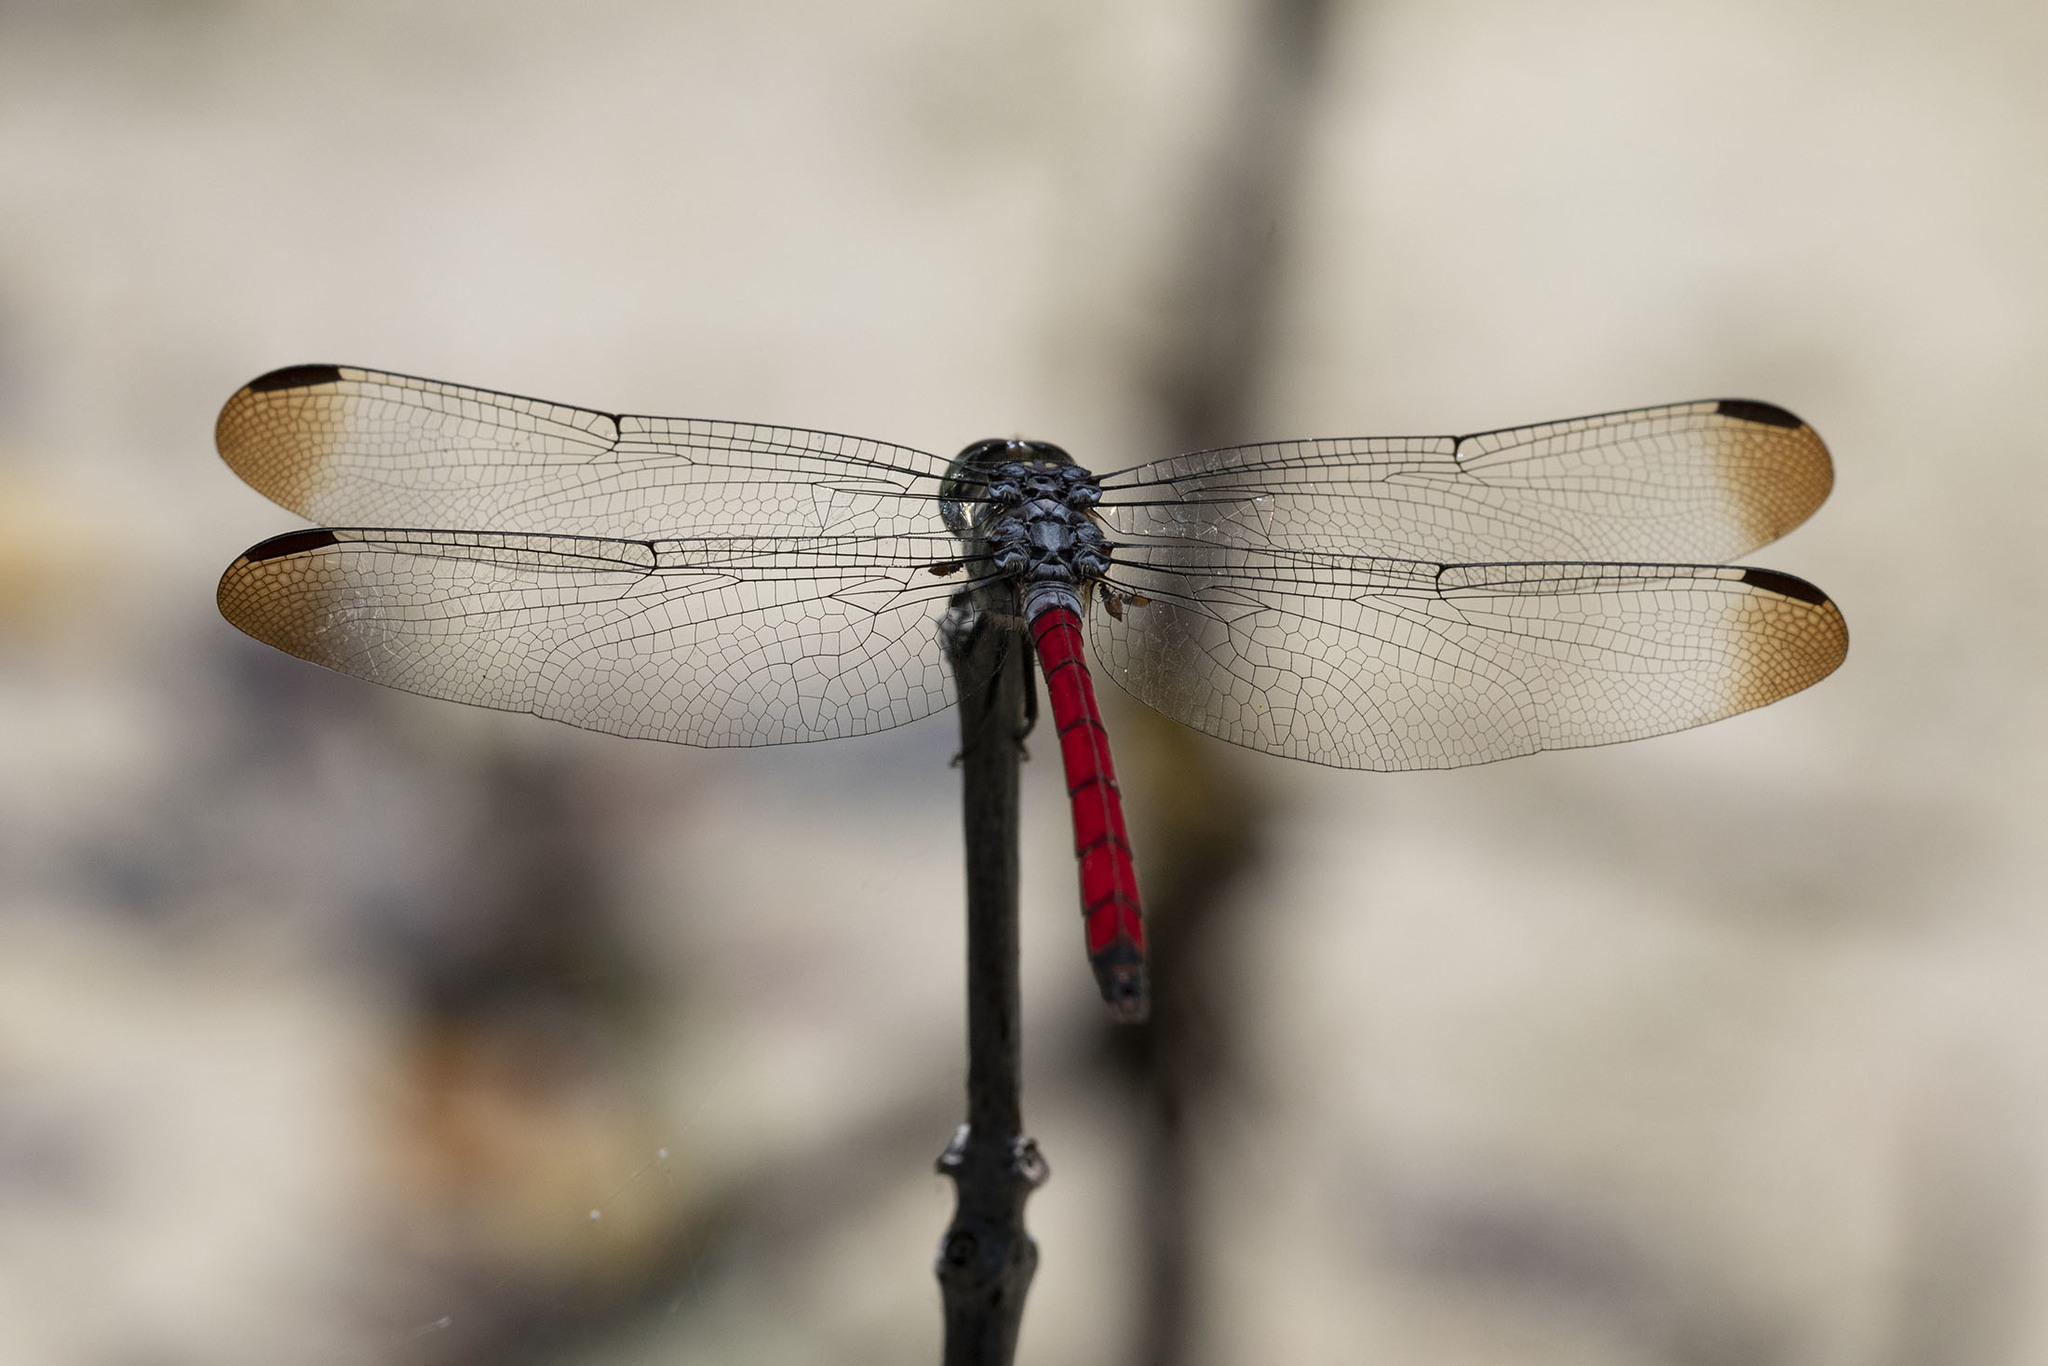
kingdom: Animalia
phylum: Arthropoda
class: Insecta
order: Odonata
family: Libellulidae
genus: Lathrecista
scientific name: Lathrecista asiatica
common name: Scarlet grenadier
